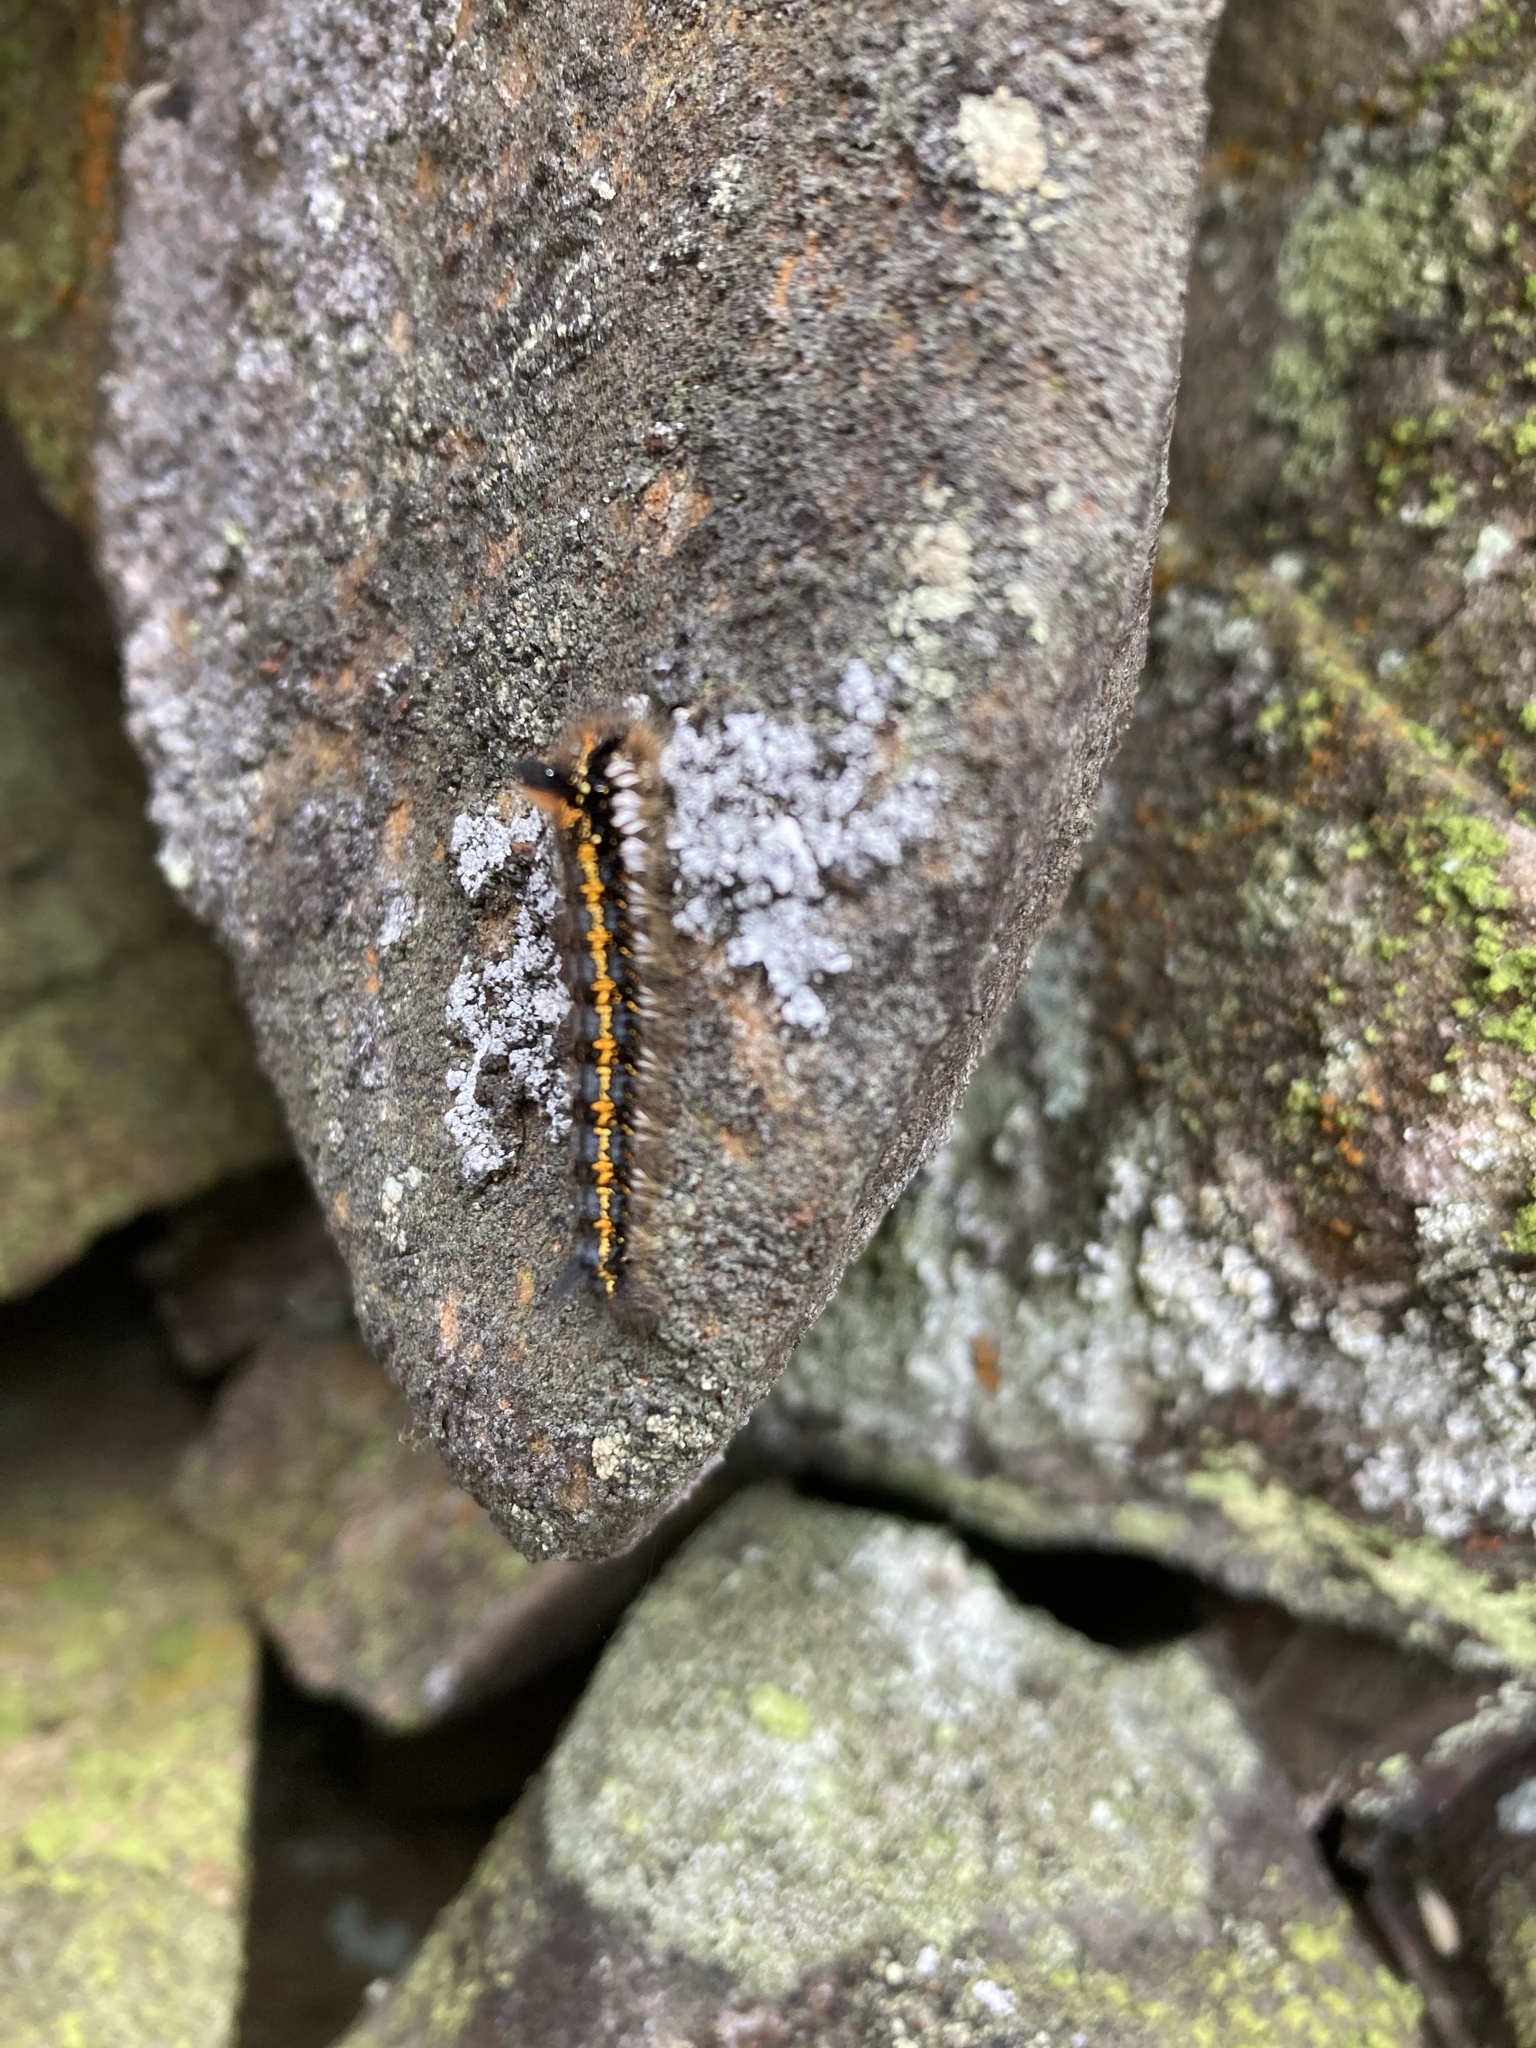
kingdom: Animalia
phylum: Arthropoda
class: Insecta
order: Lepidoptera
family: Lasiocampidae
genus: Euthrix
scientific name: Euthrix potatoria
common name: Drinker
